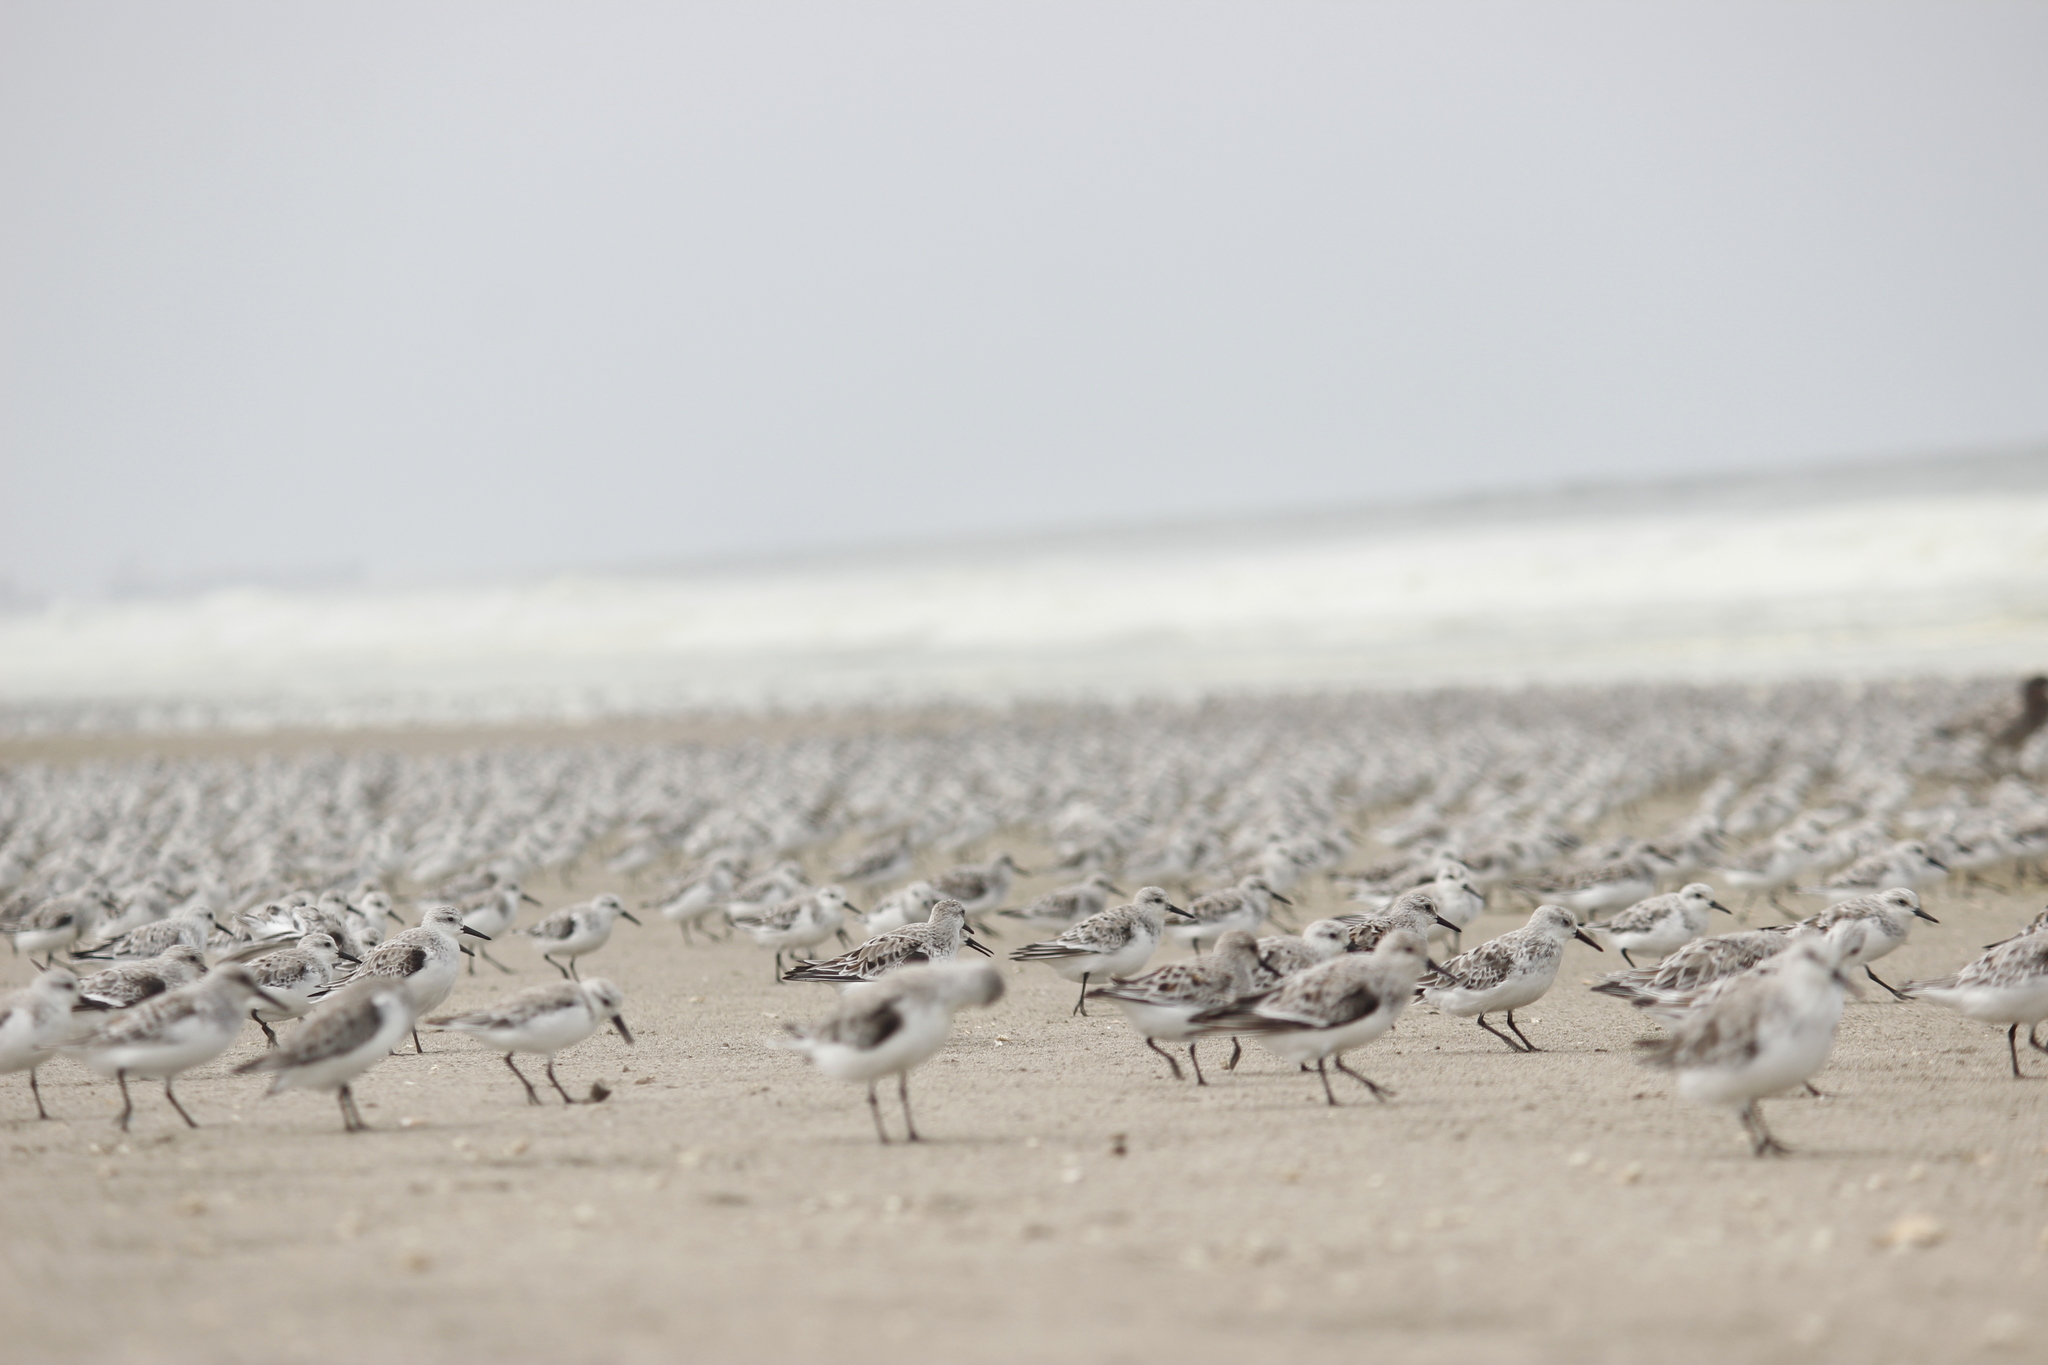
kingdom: Animalia
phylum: Chordata
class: Aves
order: Charadriiformes
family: Scolopacidae
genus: Calidris
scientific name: Calidris alba
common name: Sanderling
